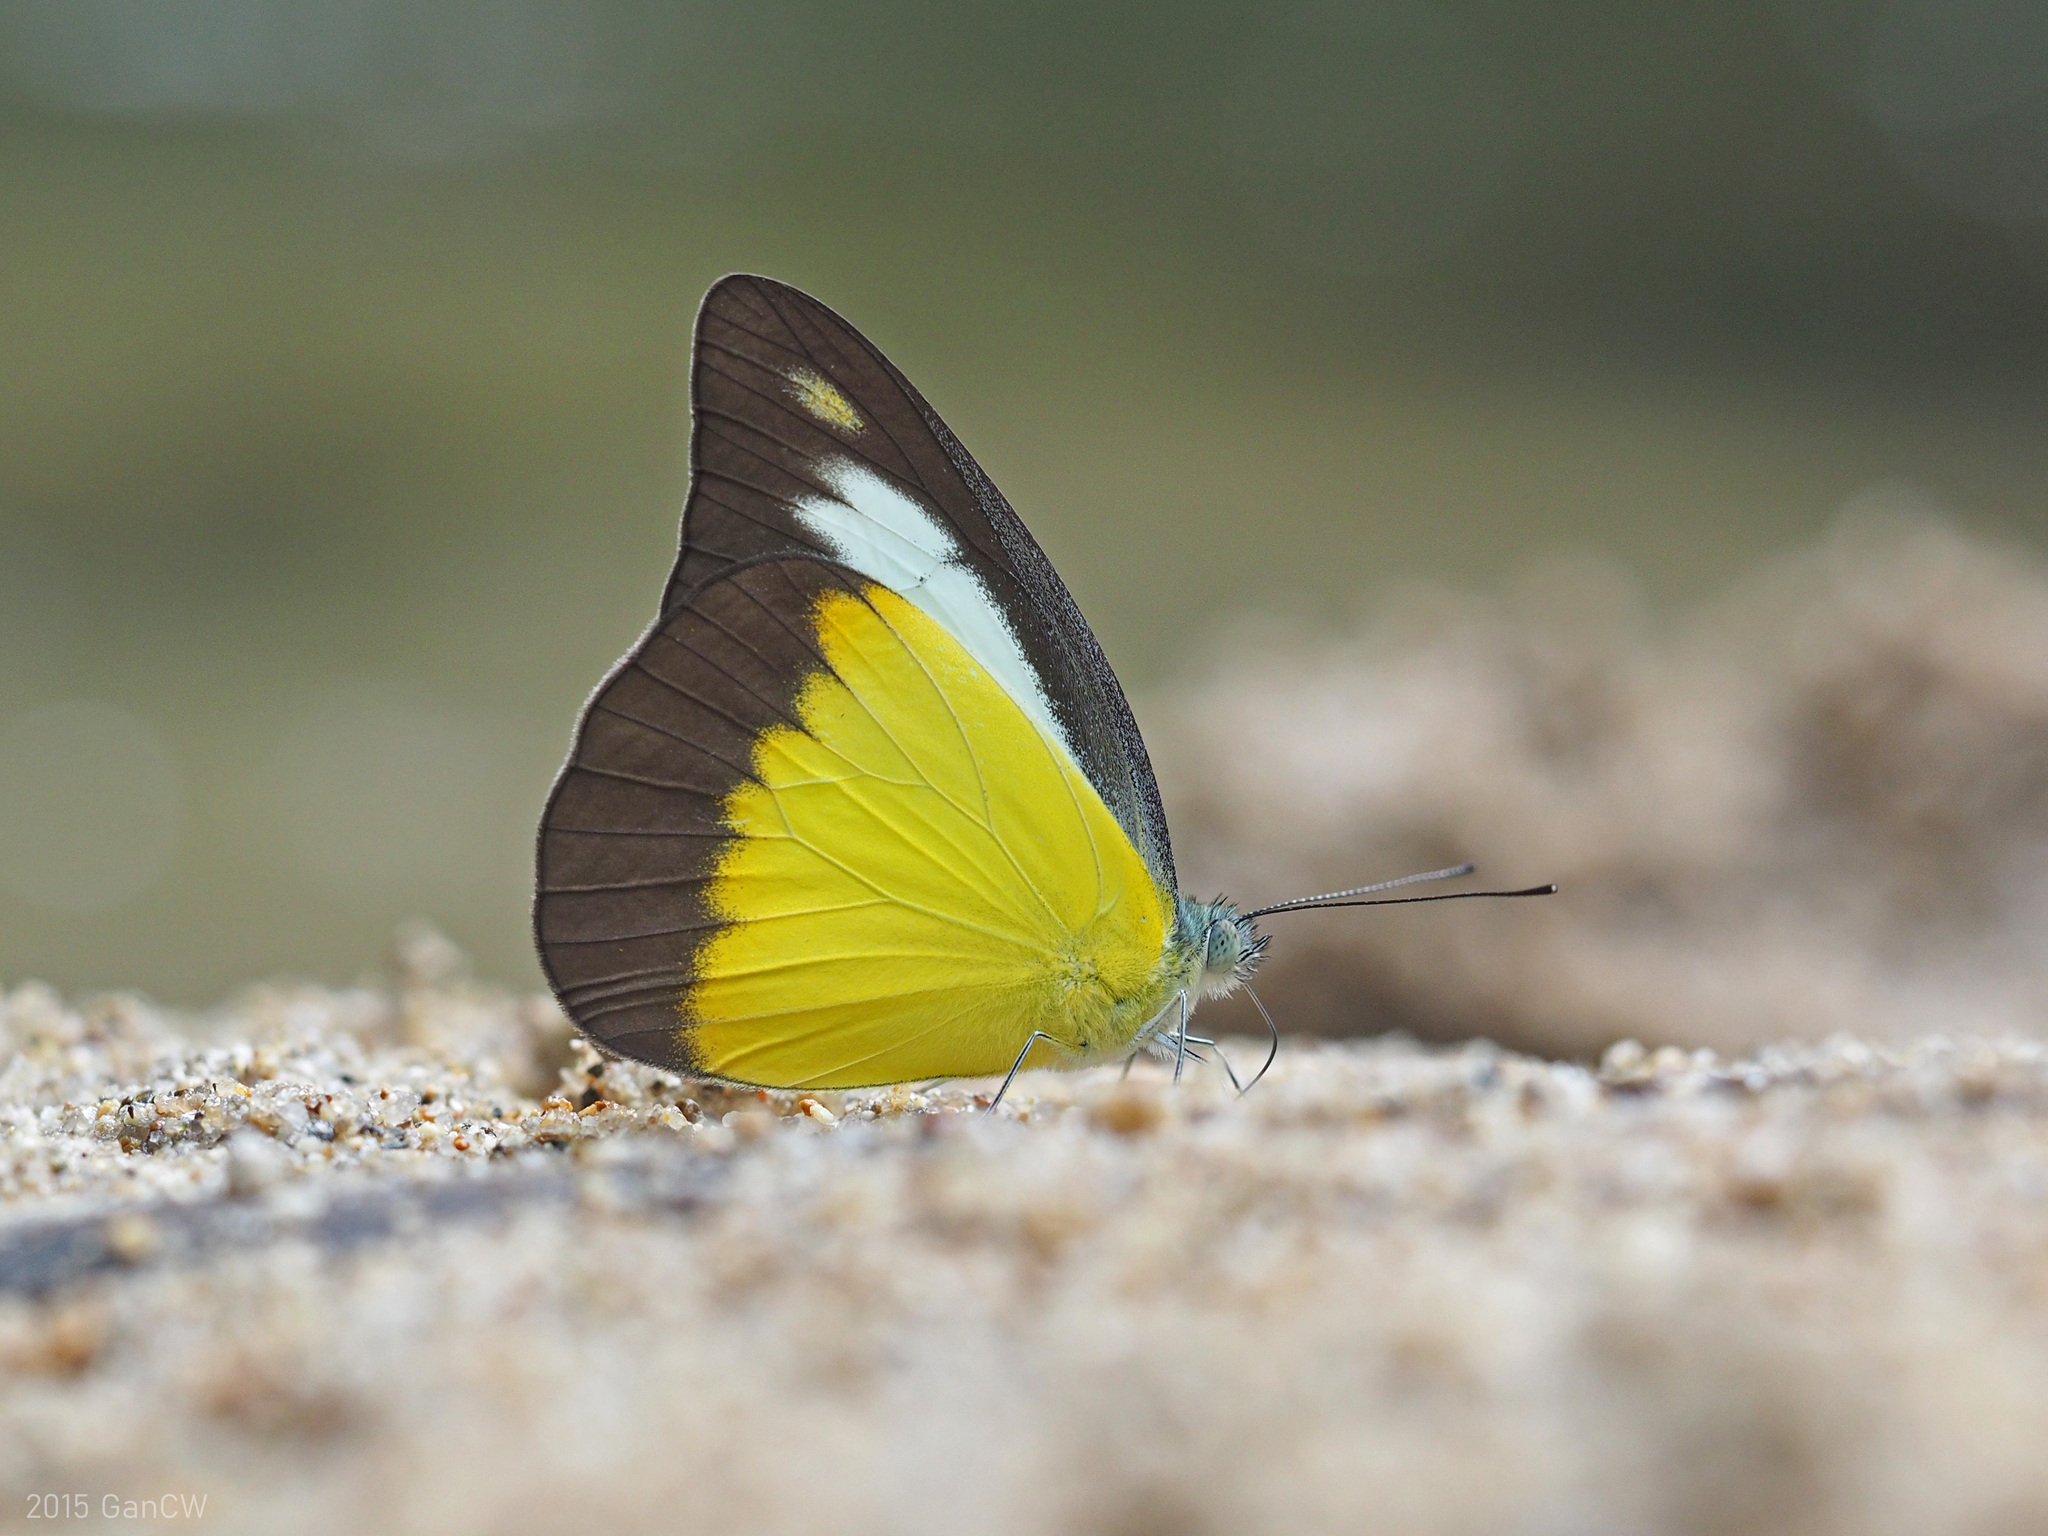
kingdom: Animalia
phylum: Arthropoda
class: Insecta
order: Lepidoptera
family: Pieridae
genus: Appias
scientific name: Appias lyncida
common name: Chocolate albatross
